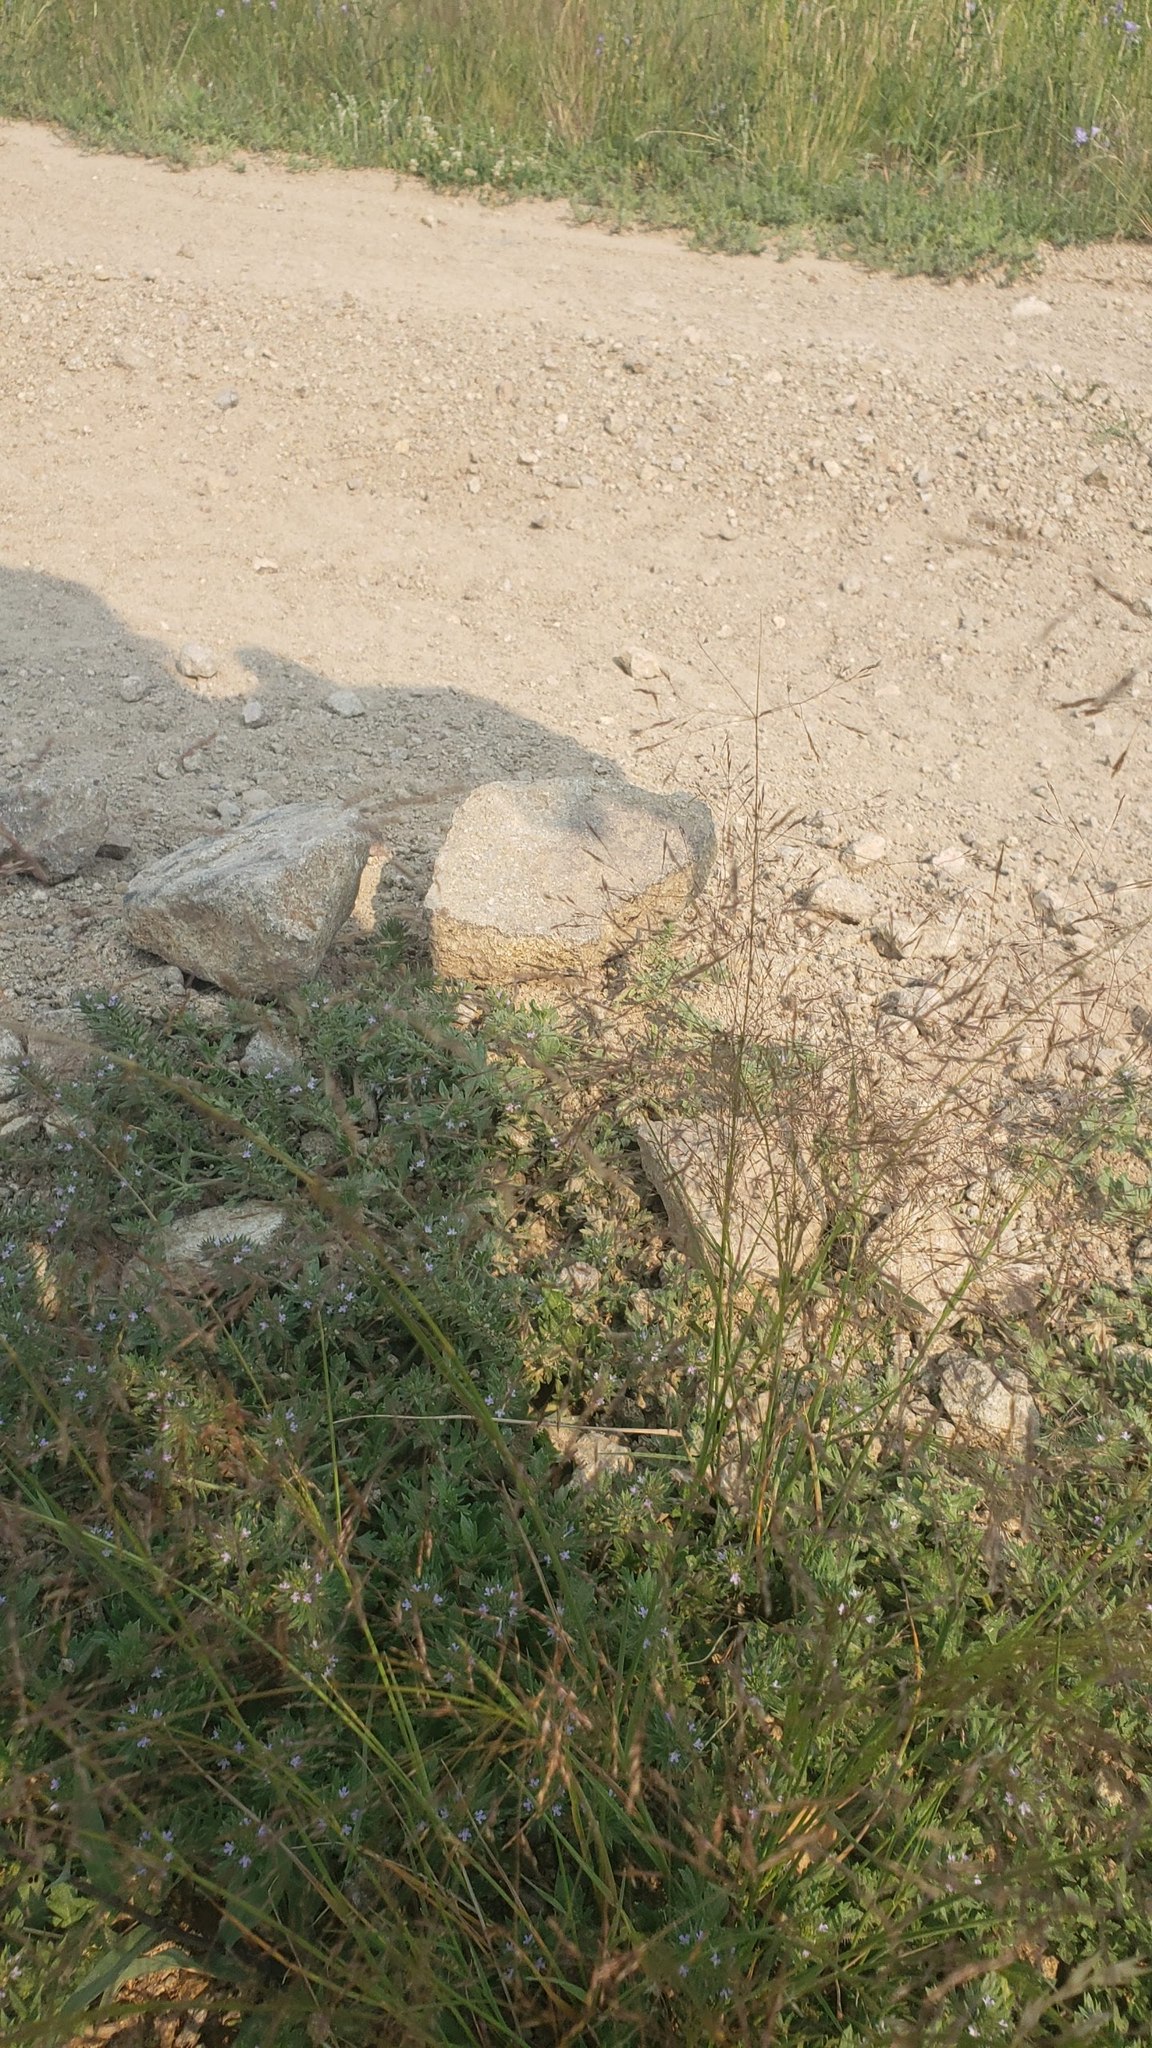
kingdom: Plantae
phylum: Tracheophyta
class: Magnoliopsida
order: Lamiales
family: Verbenaceae
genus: Verbena
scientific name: Verbena bracteata
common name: Bracted vervain
